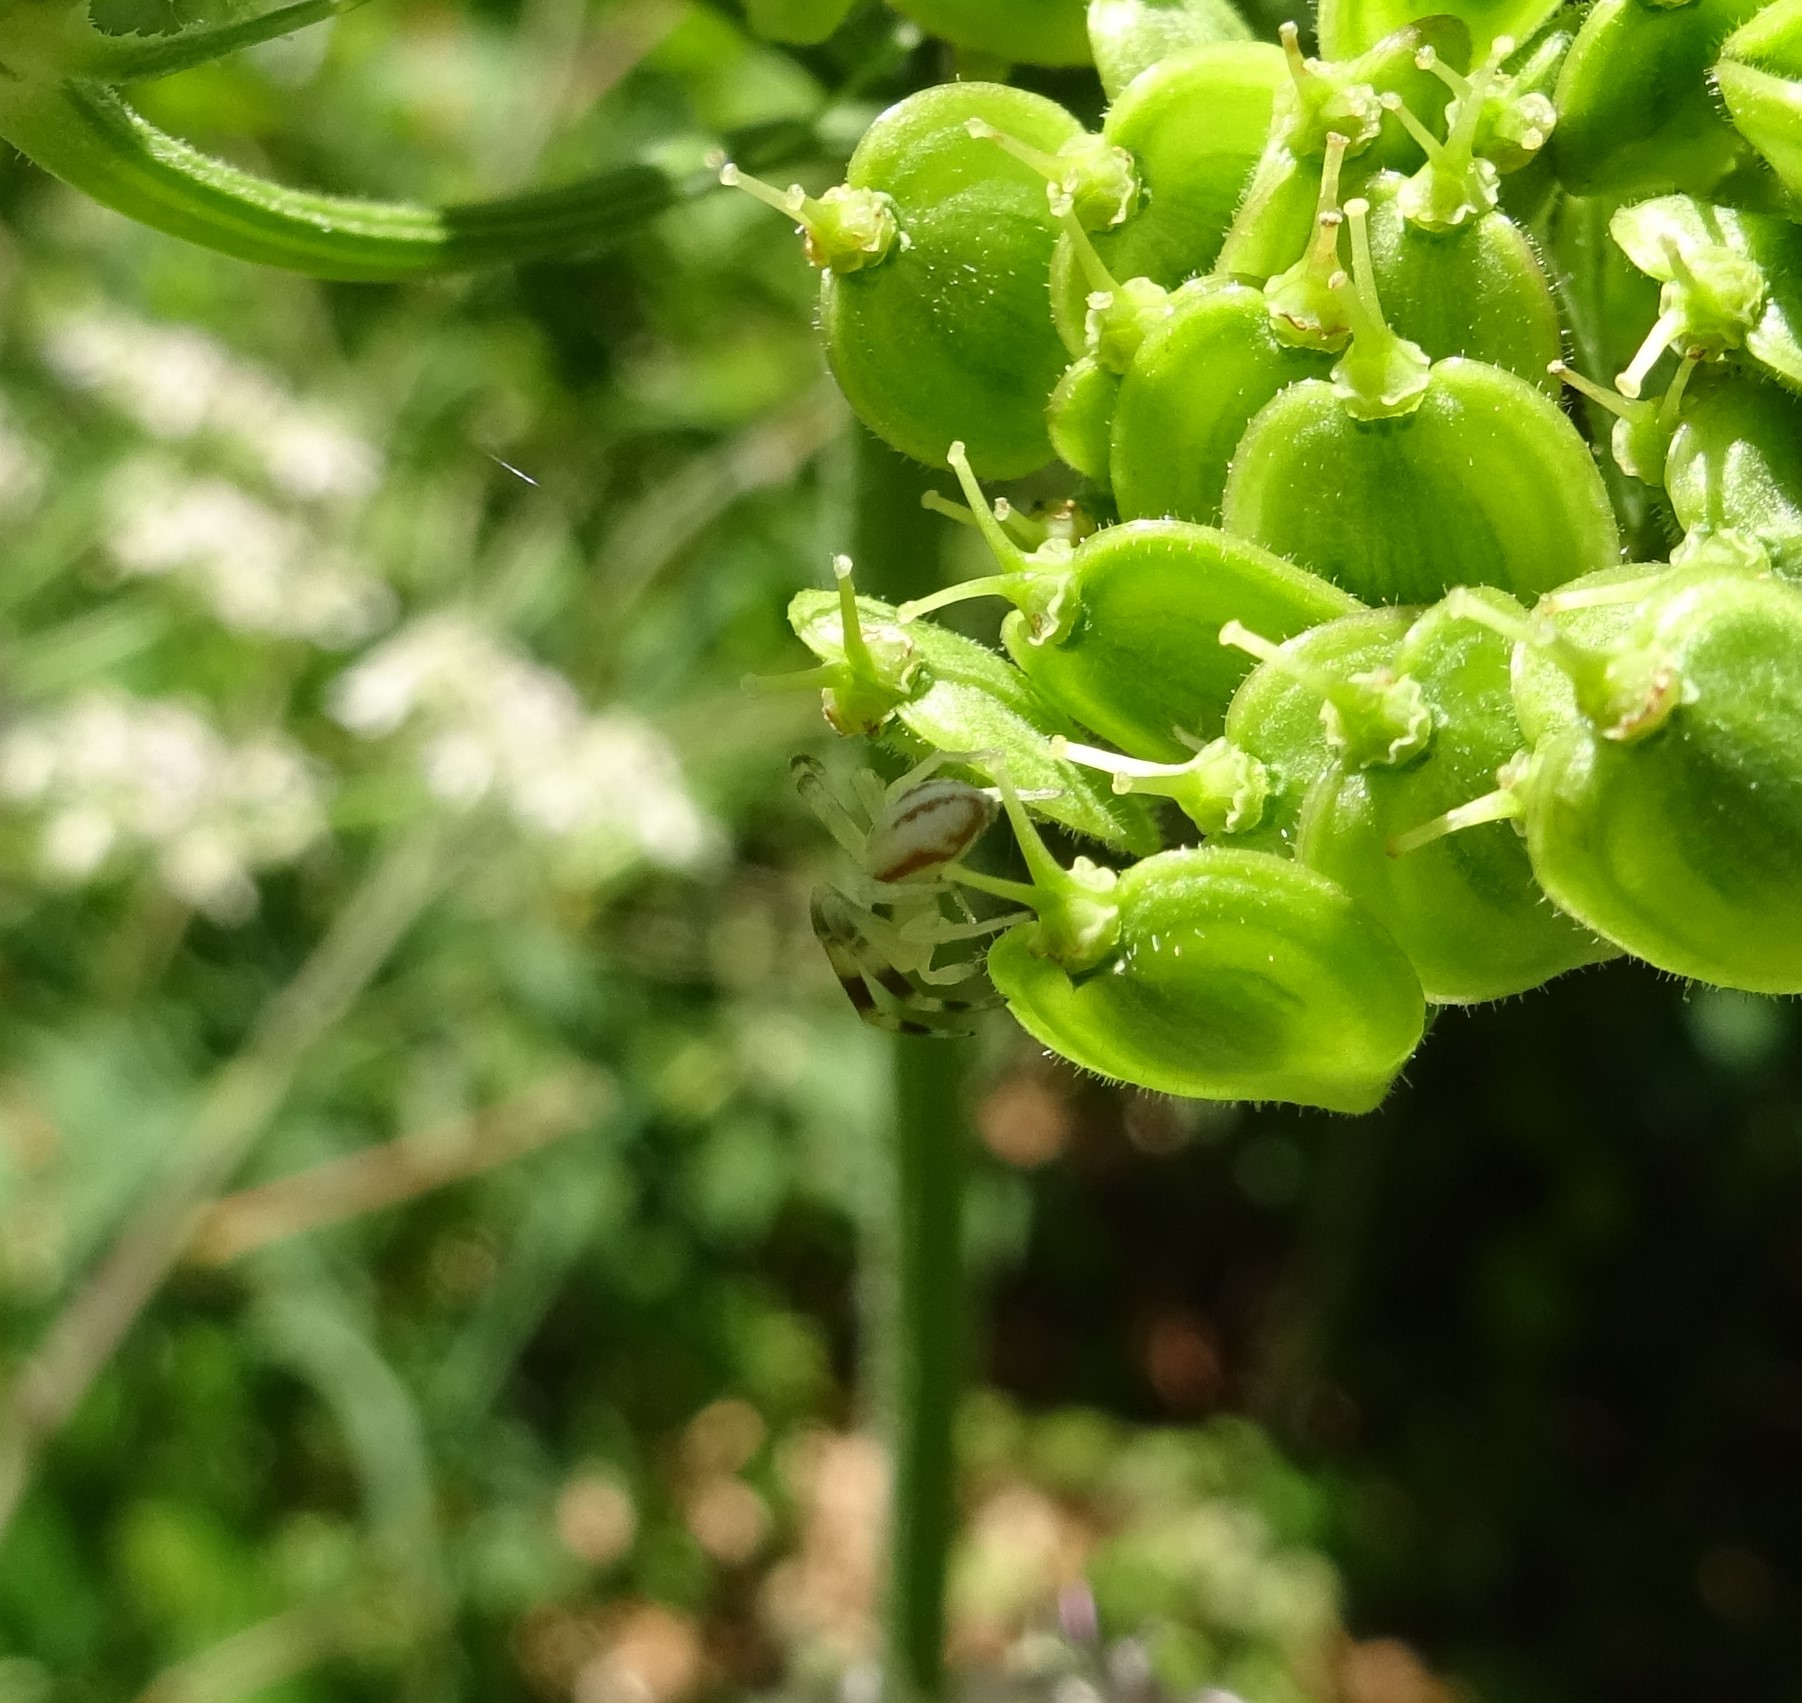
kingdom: Animalia
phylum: Arthropoda
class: Arachnida
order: Araneae
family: Thomisidae
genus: Misumena
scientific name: Misumena vatia
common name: Goldenrod crab spider
